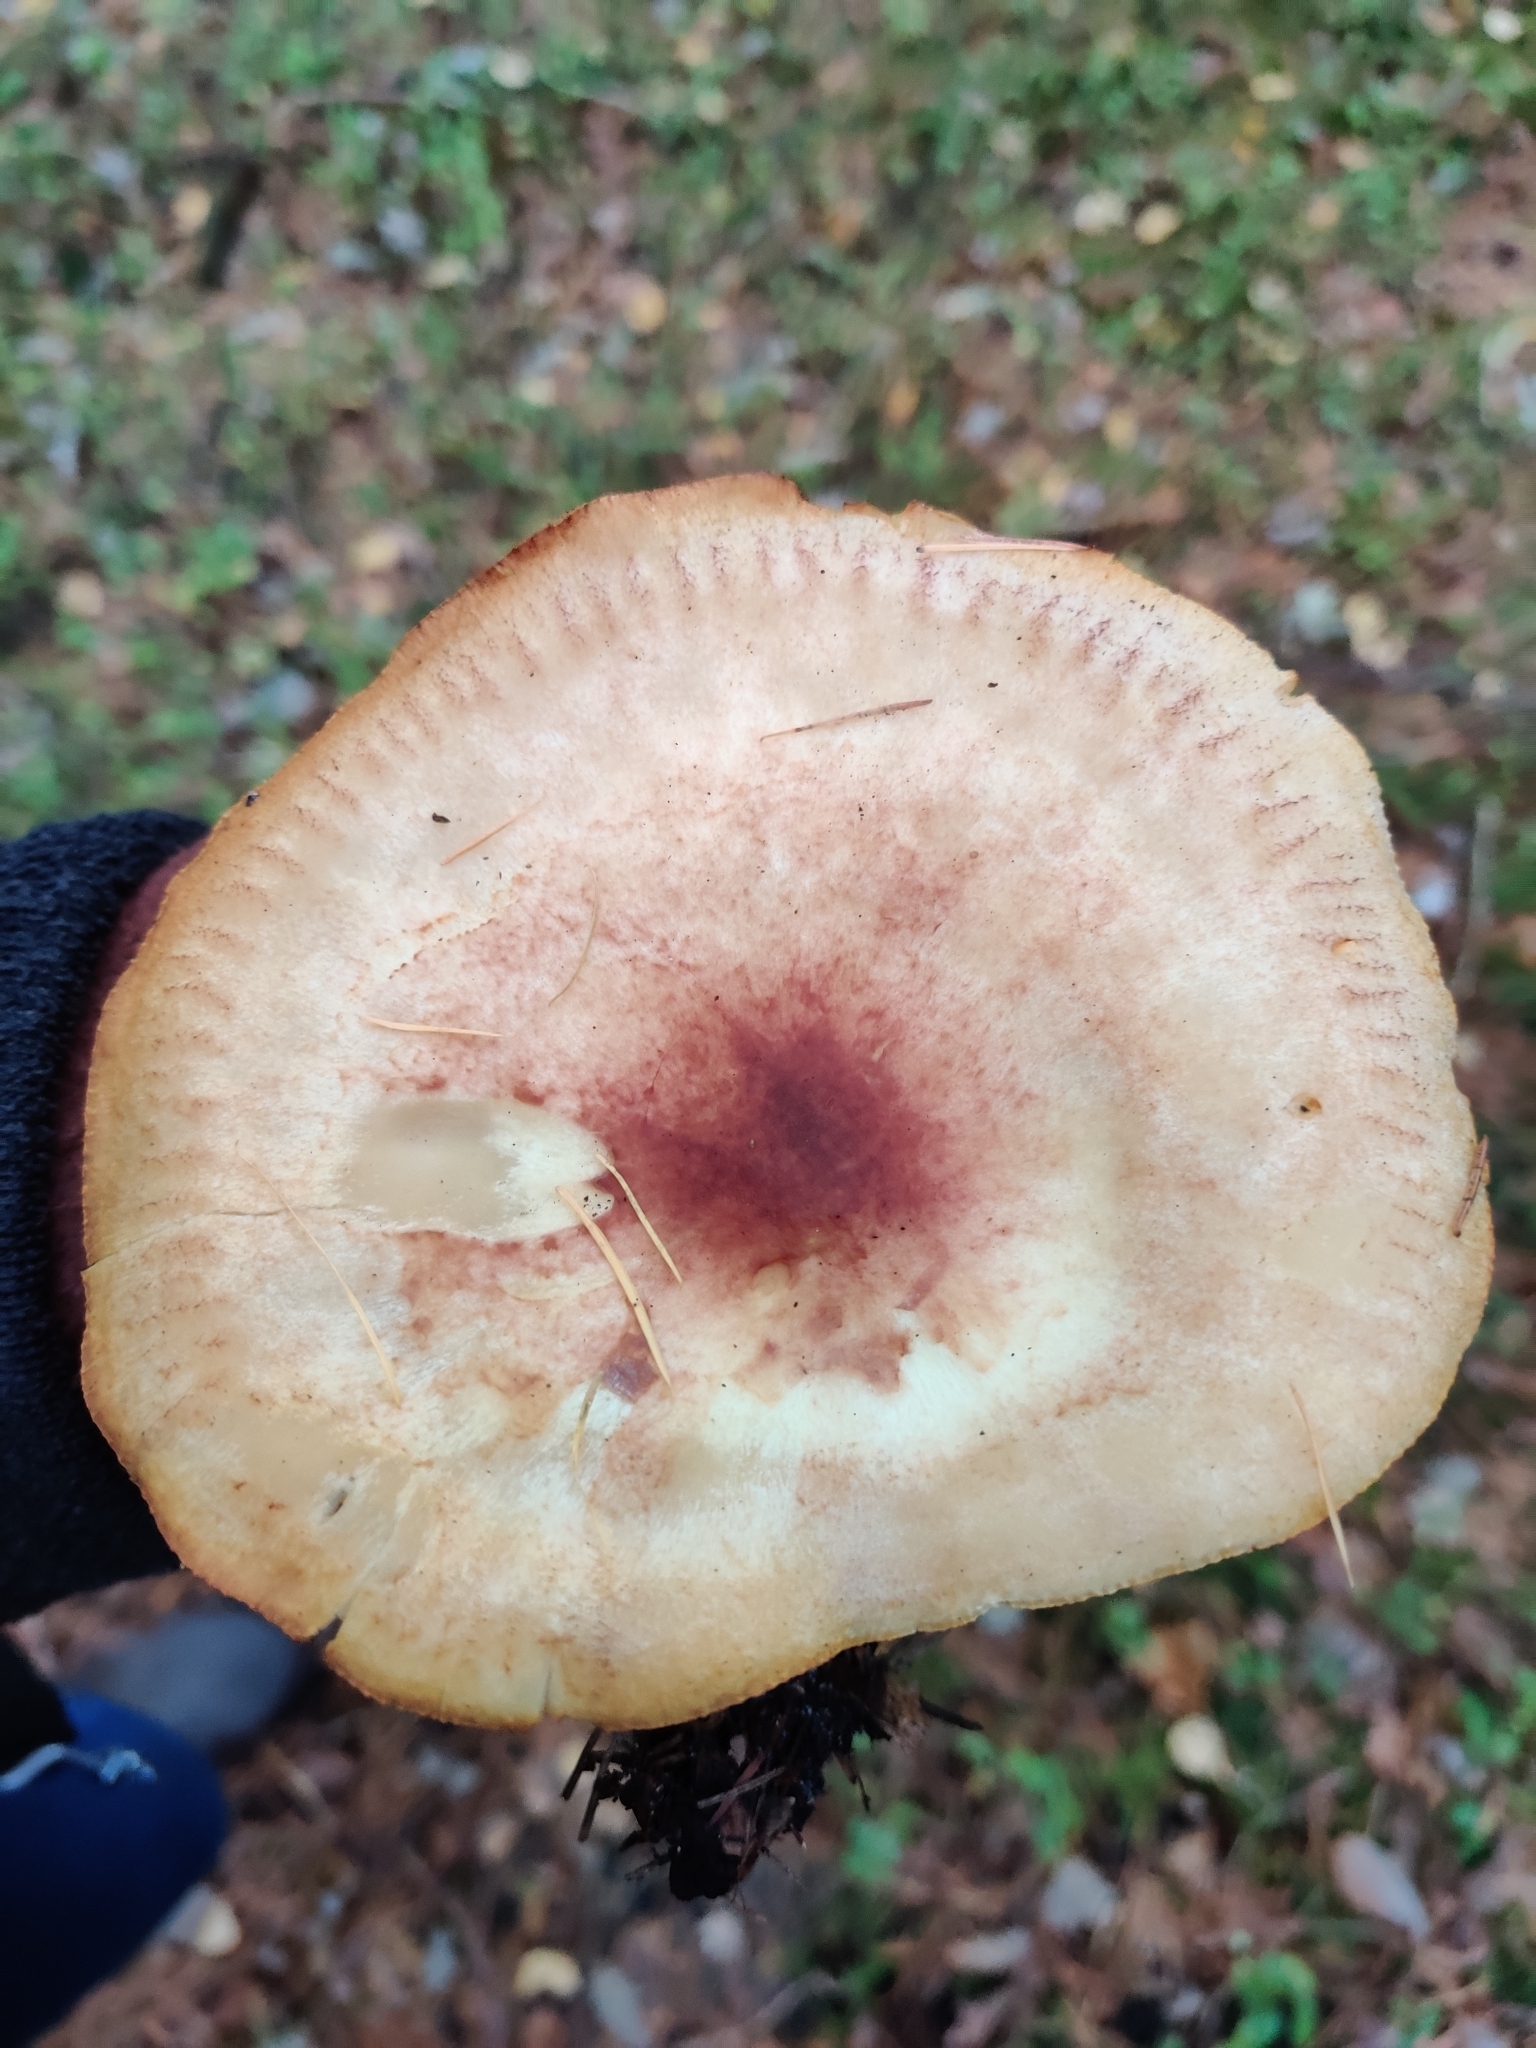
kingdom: Fungi
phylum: Basidiomycota
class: Agaricomycetes
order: Agaricales
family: Tricholomataceae
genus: Tricholomopsis
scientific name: Tricholomopsis rutilans
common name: Plums and custard
